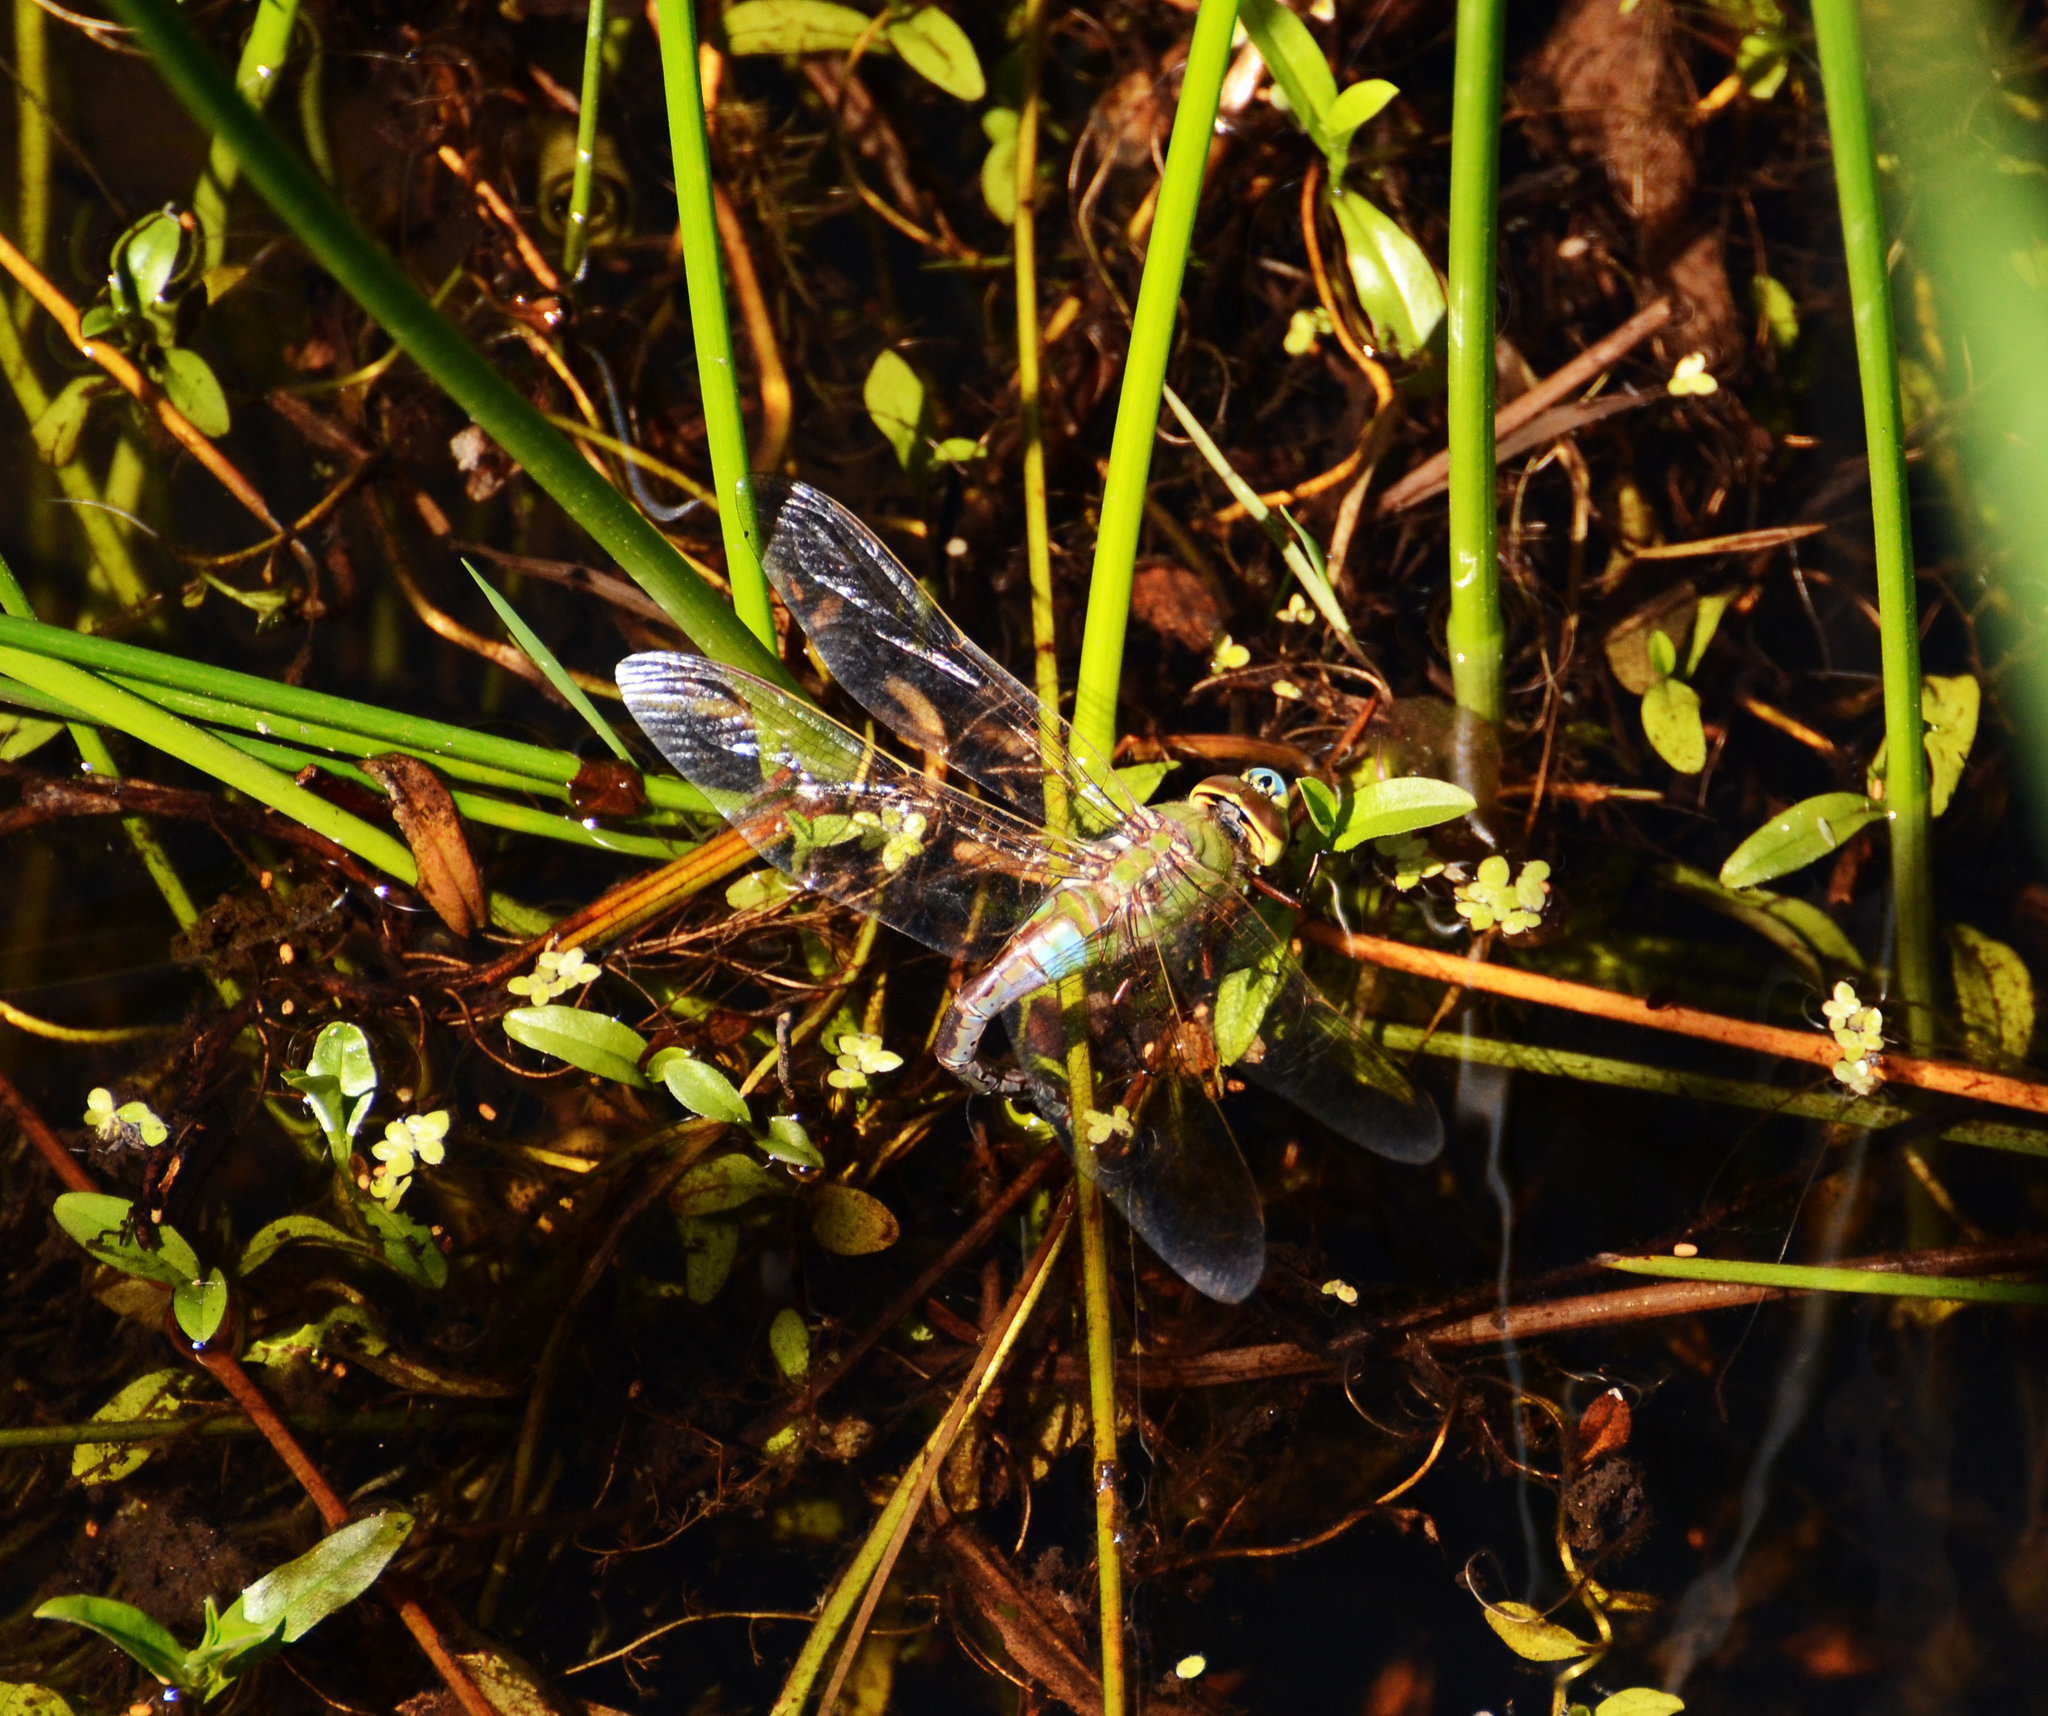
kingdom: Animalia
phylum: Arthropoda
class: Insecta
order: Odonata
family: Aeshnidae
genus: Anax
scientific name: Anax junius
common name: Common green darner
